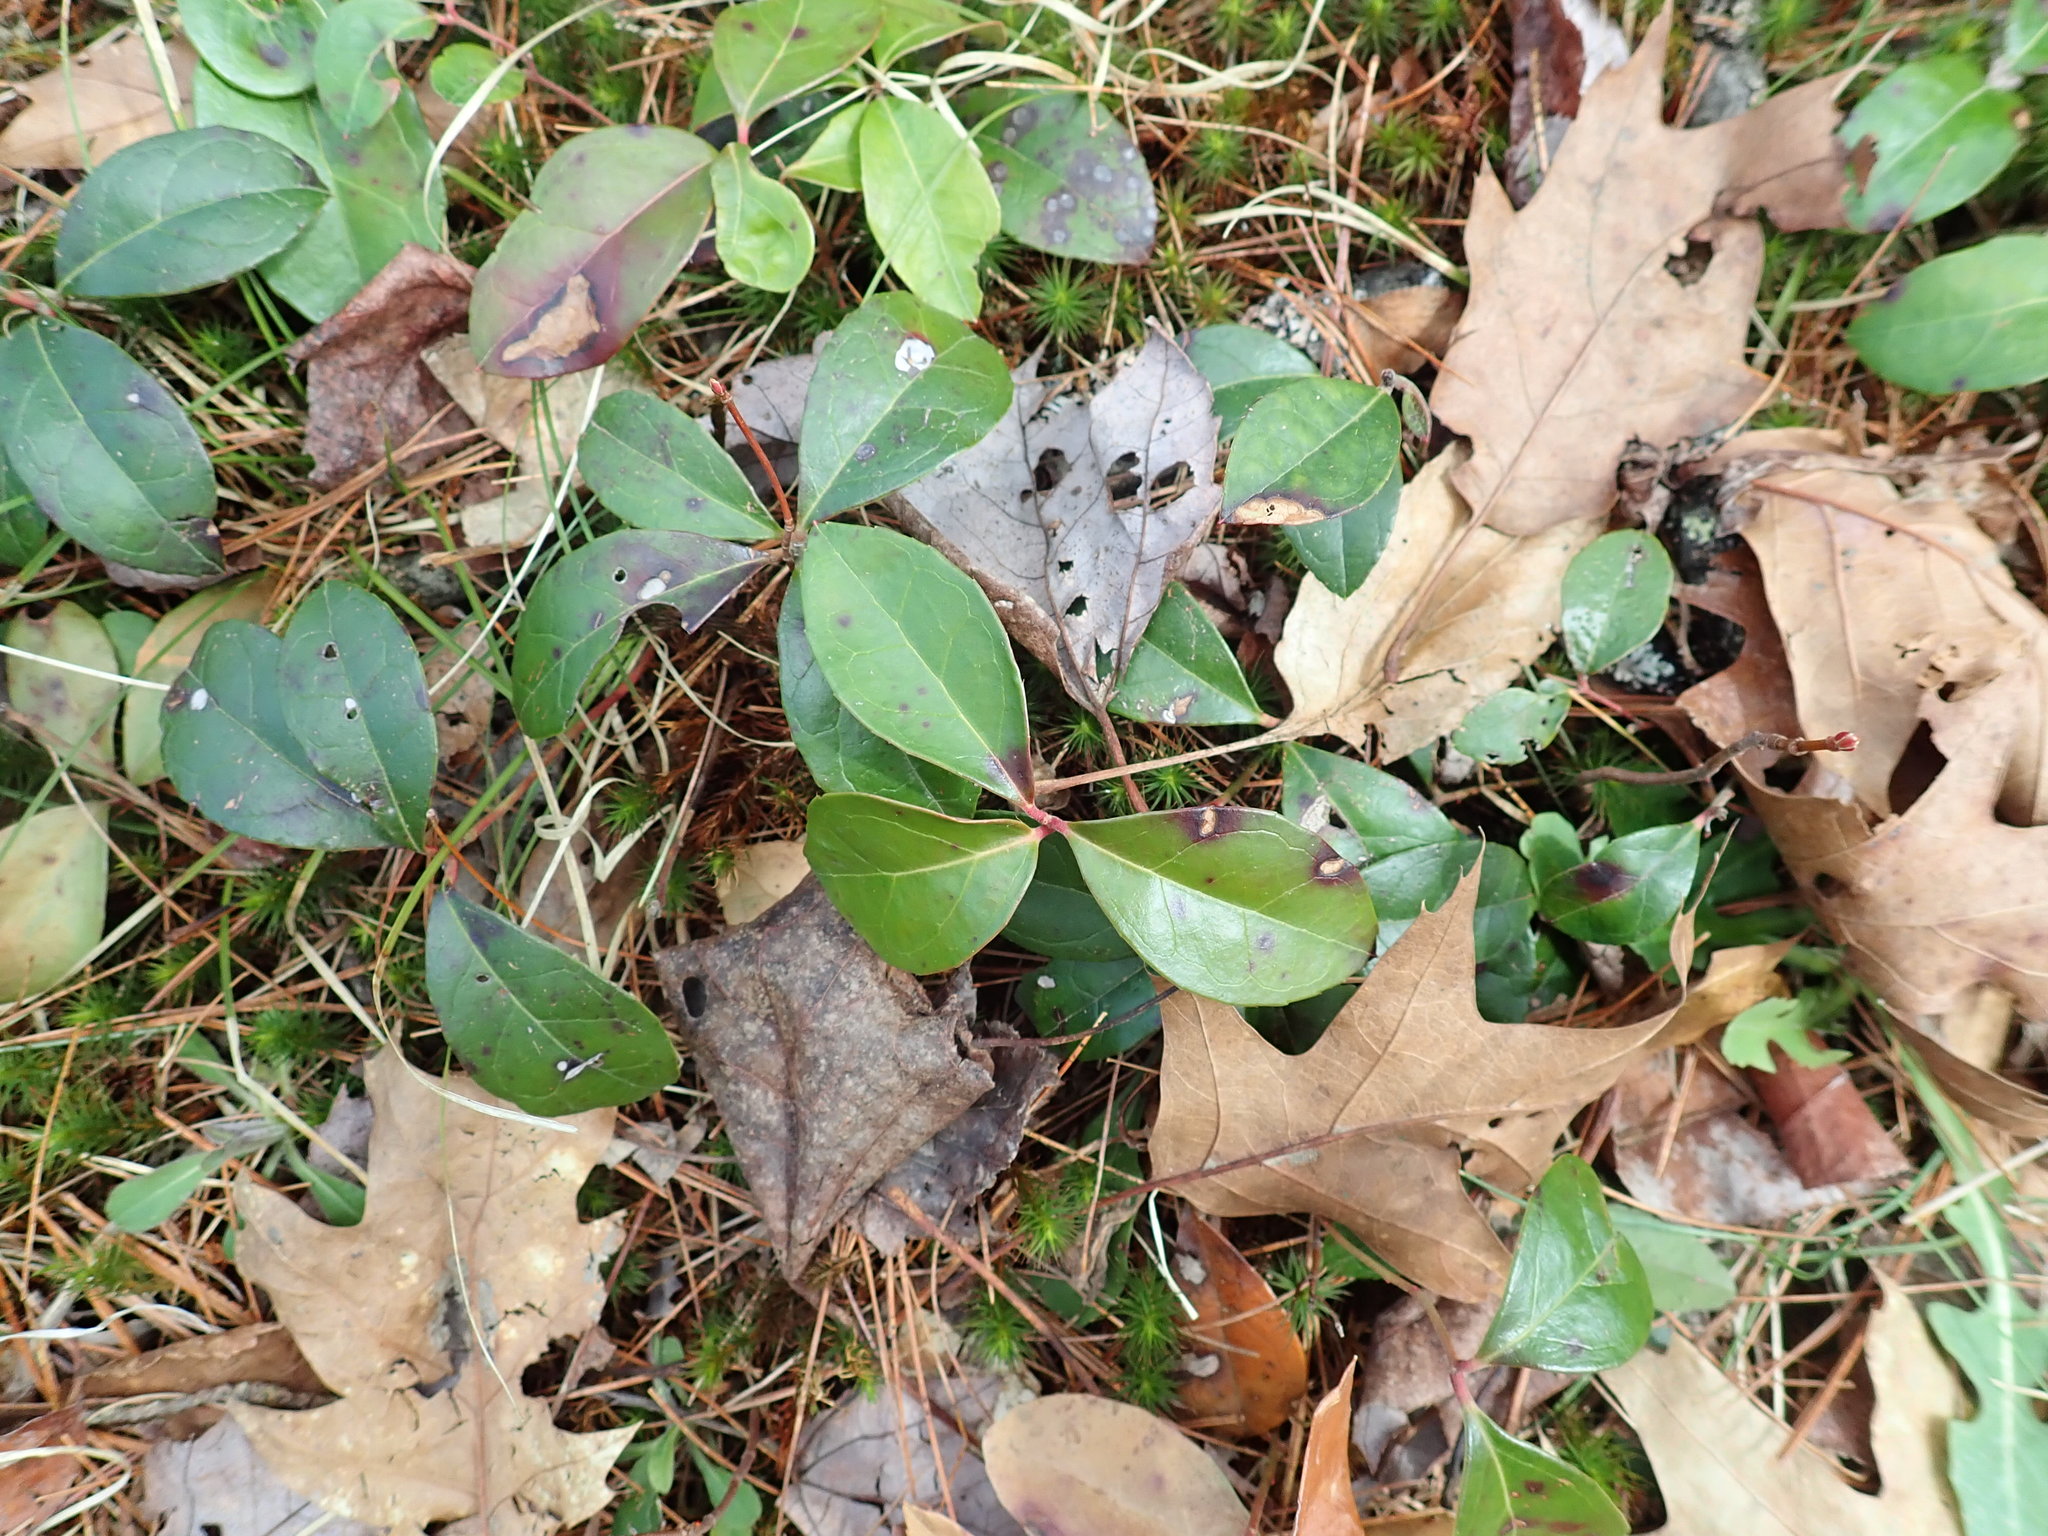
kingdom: Plantae
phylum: Tracheophyta
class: Magnoliopsida
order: Ericales
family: Ericaceae
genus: Gaultheria
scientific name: Gaultheria procumbens
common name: Checkerberry
